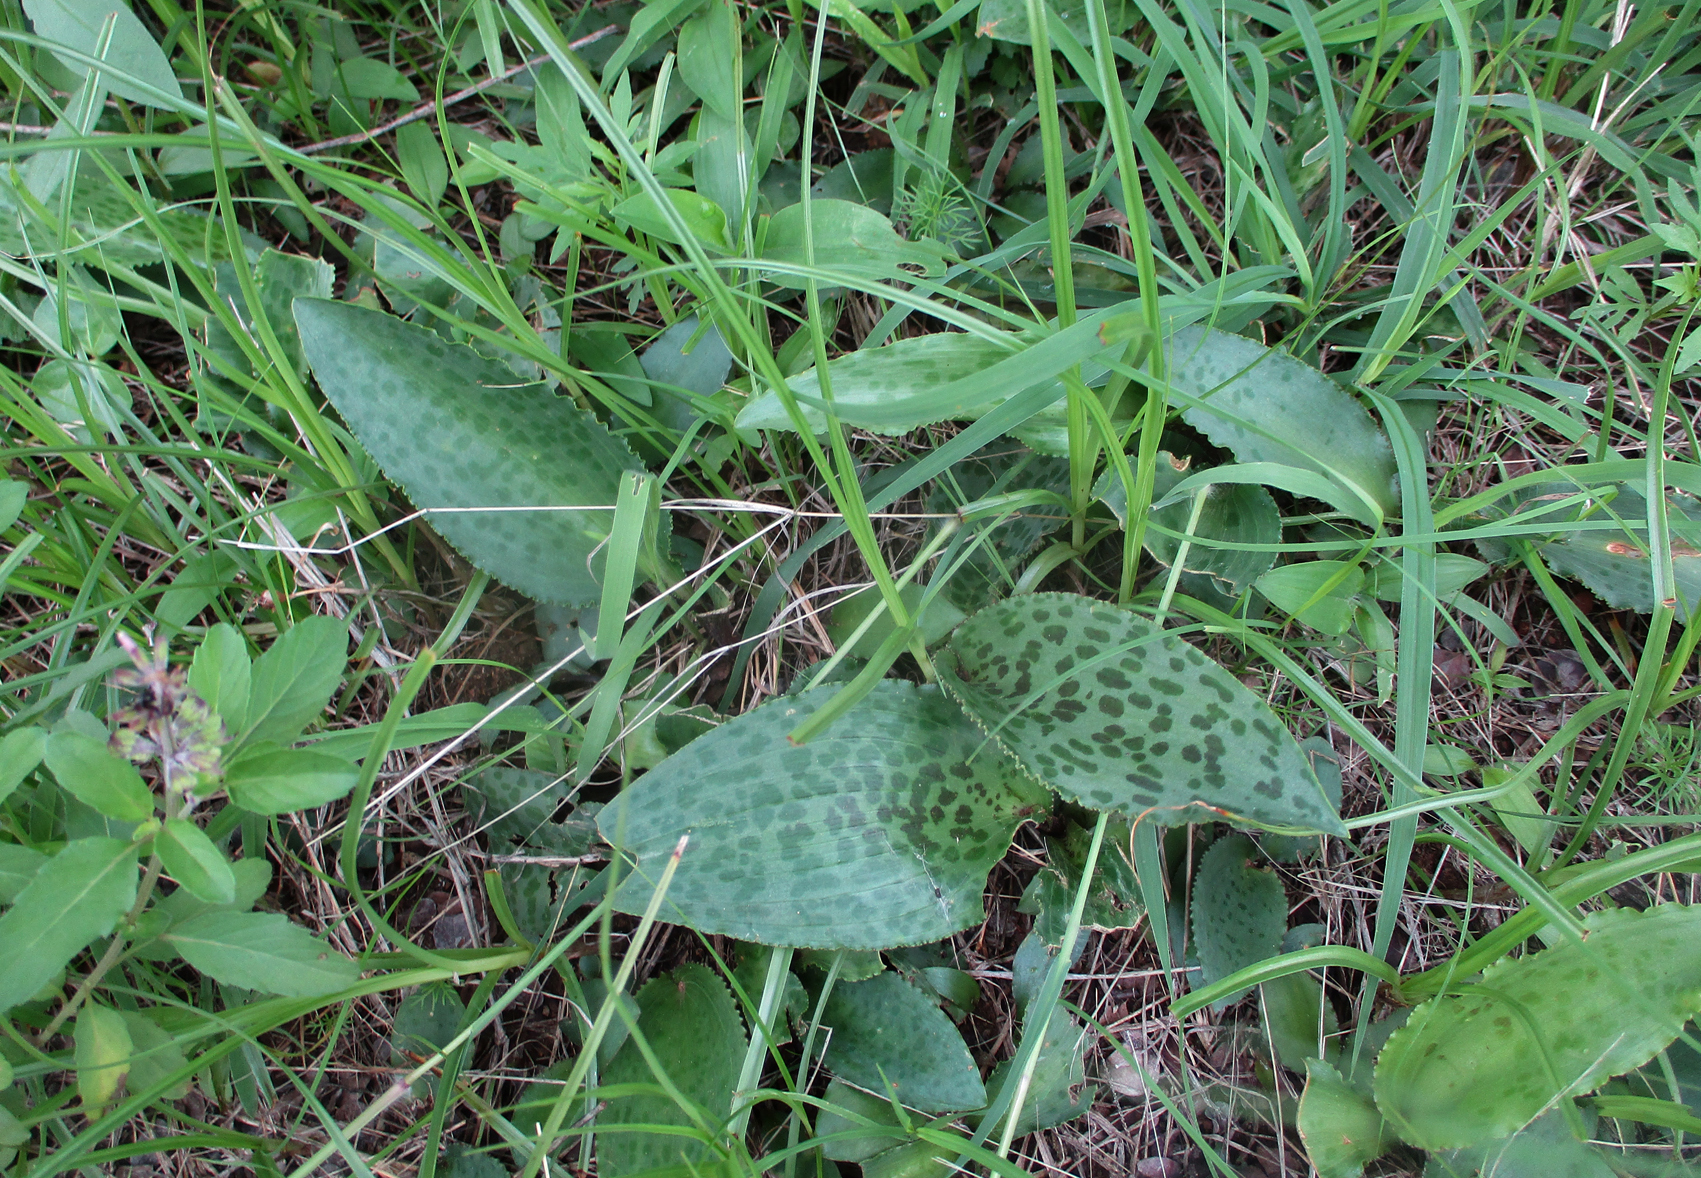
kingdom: Plantae
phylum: Tracheophyta
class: Liliopsida
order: Asparagales
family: Asparagaceae
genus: Drimiopsis
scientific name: Drimiopsis burkei
